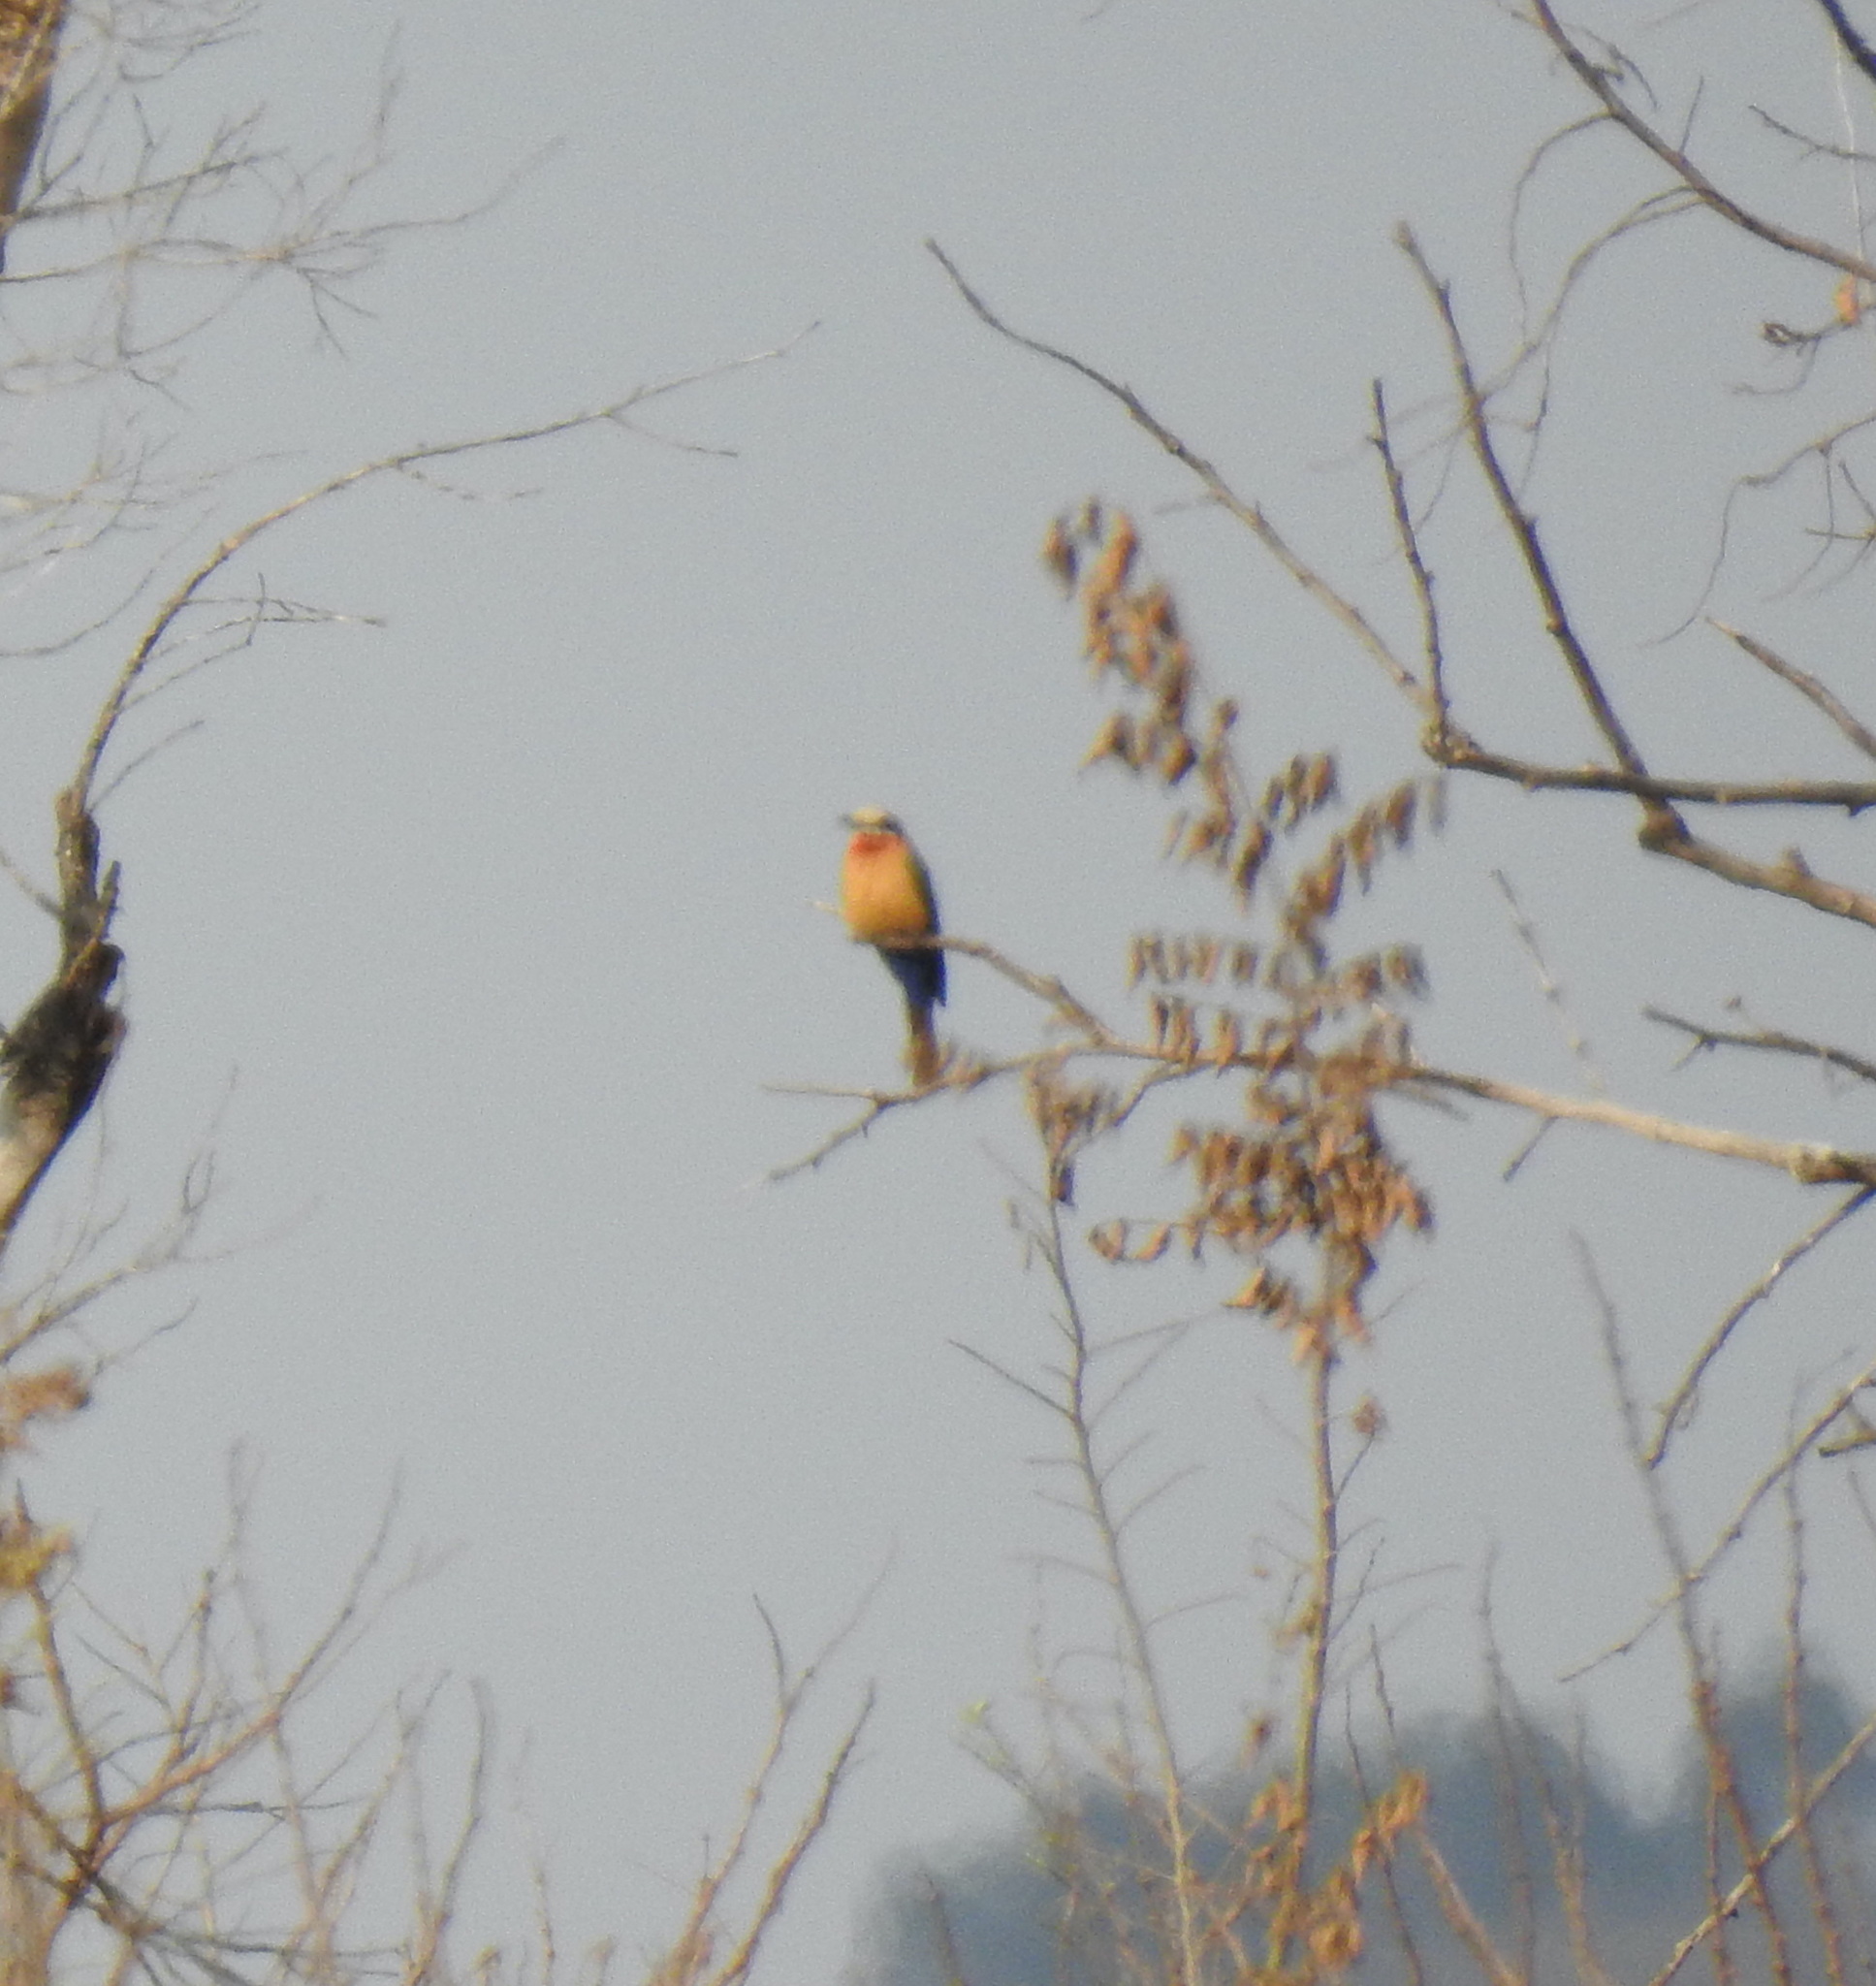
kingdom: Animalia
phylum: Chordata
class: Aves
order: Coraciiformes
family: Meropidae
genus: Merops
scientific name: Merops bullockoides
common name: White-fronted bee-eater
